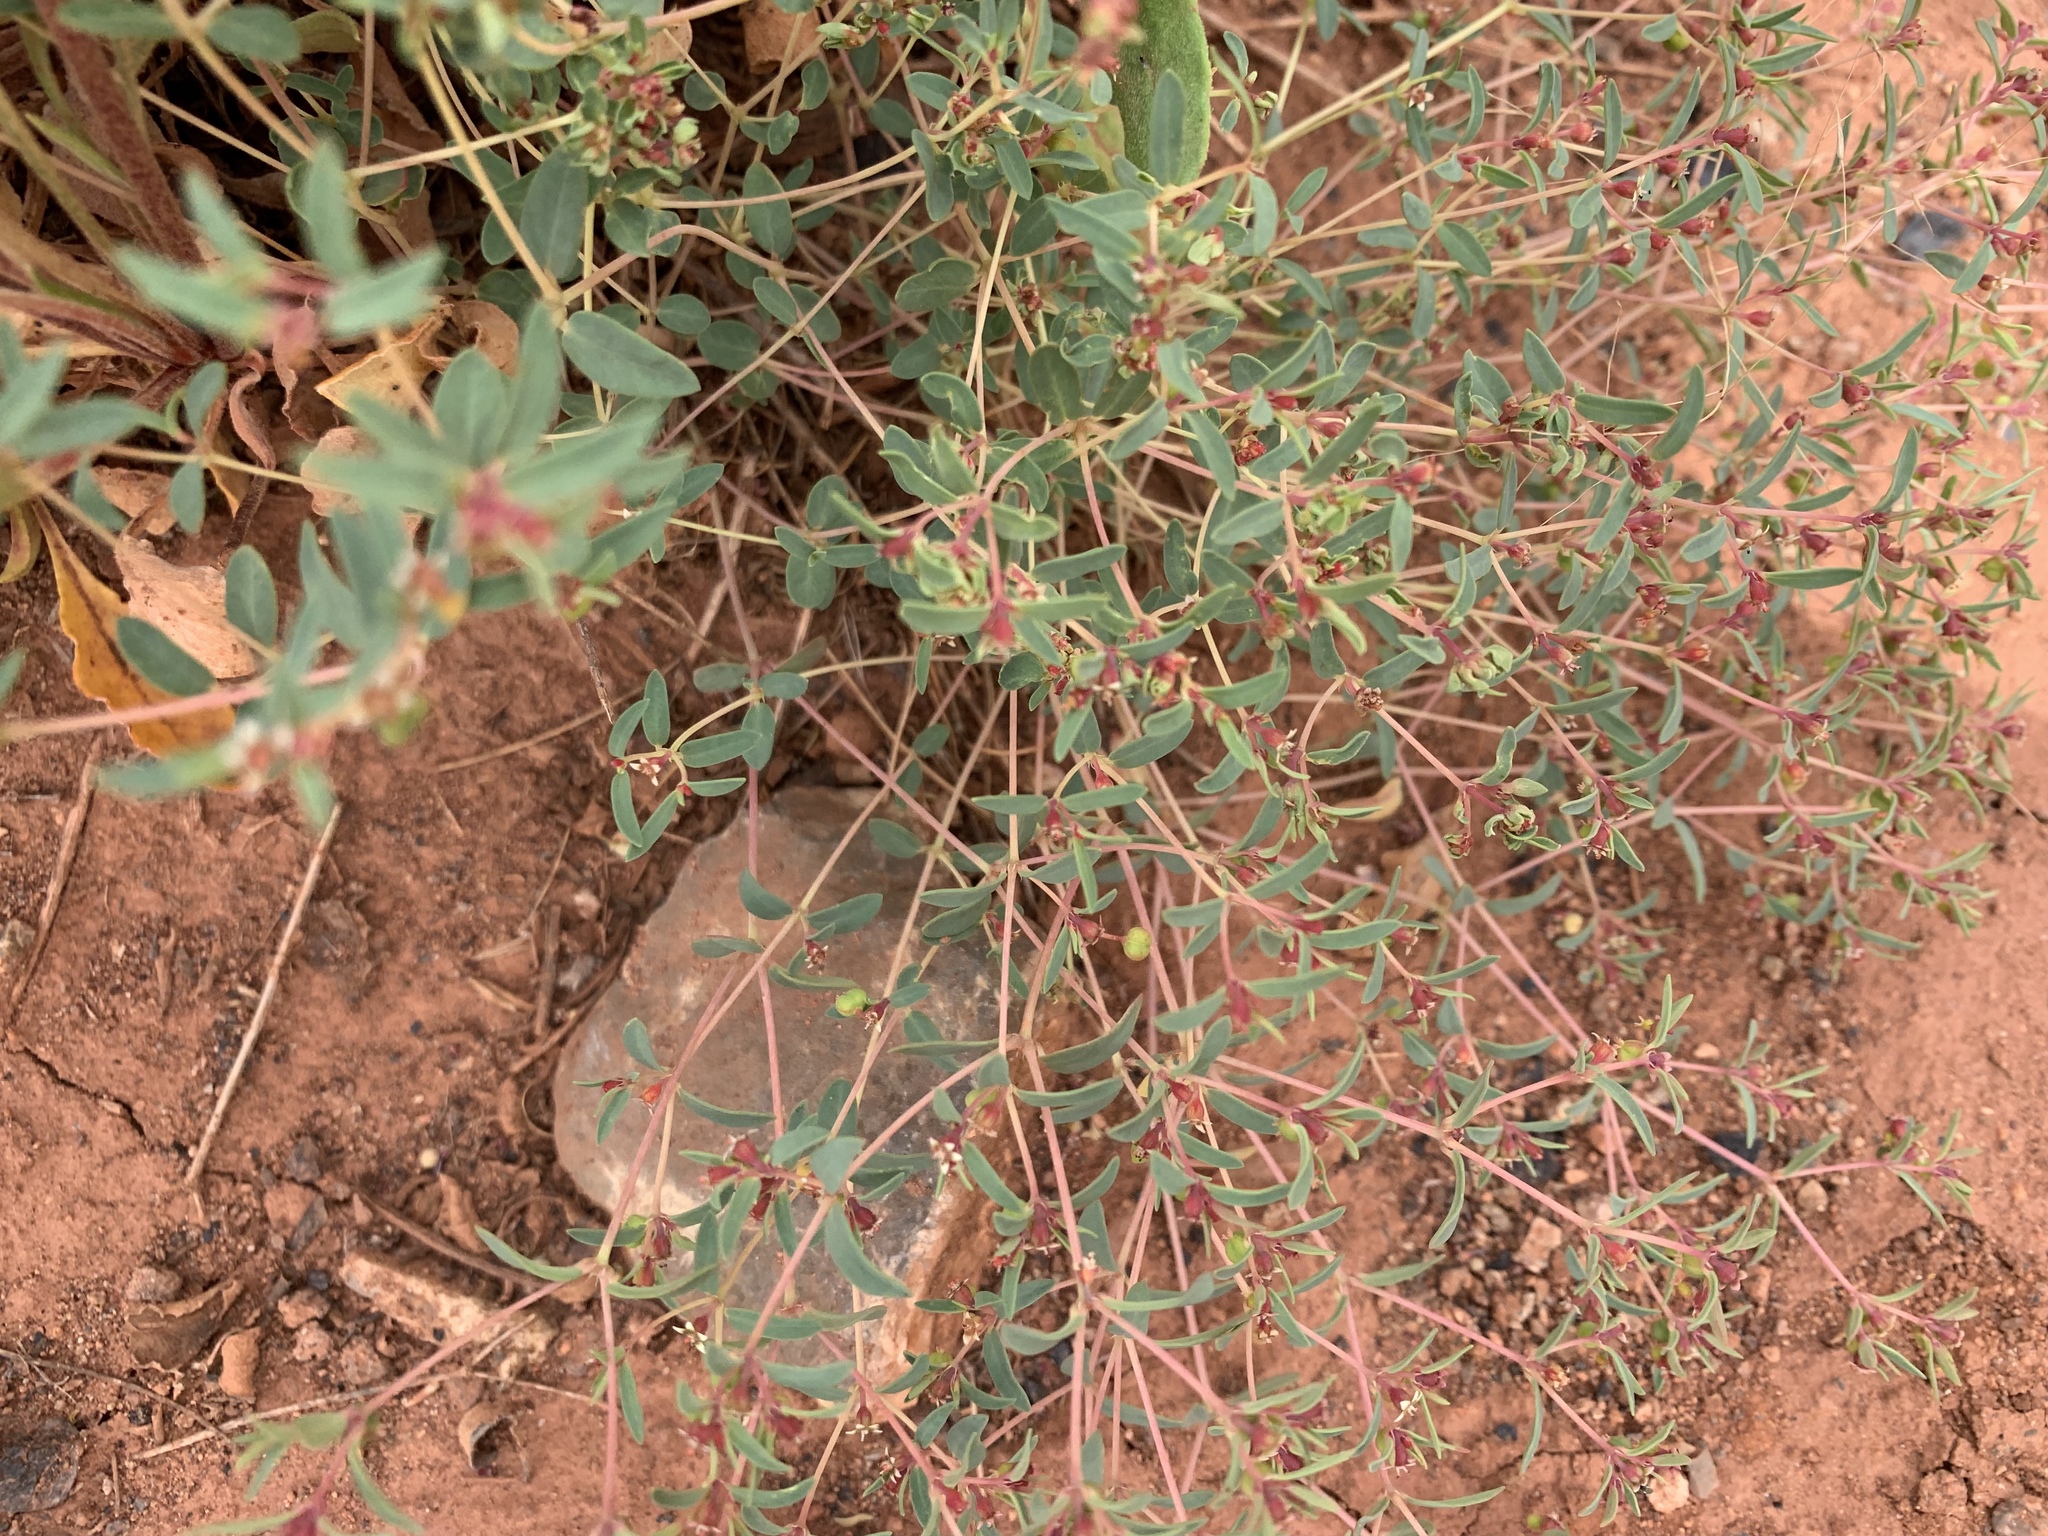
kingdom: Plantae
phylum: Tracheophyta
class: Magnoliopsida
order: Malpighiales
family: Euphorbiaceae
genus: Euphorbia
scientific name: Euphorbia chaetocalyx
